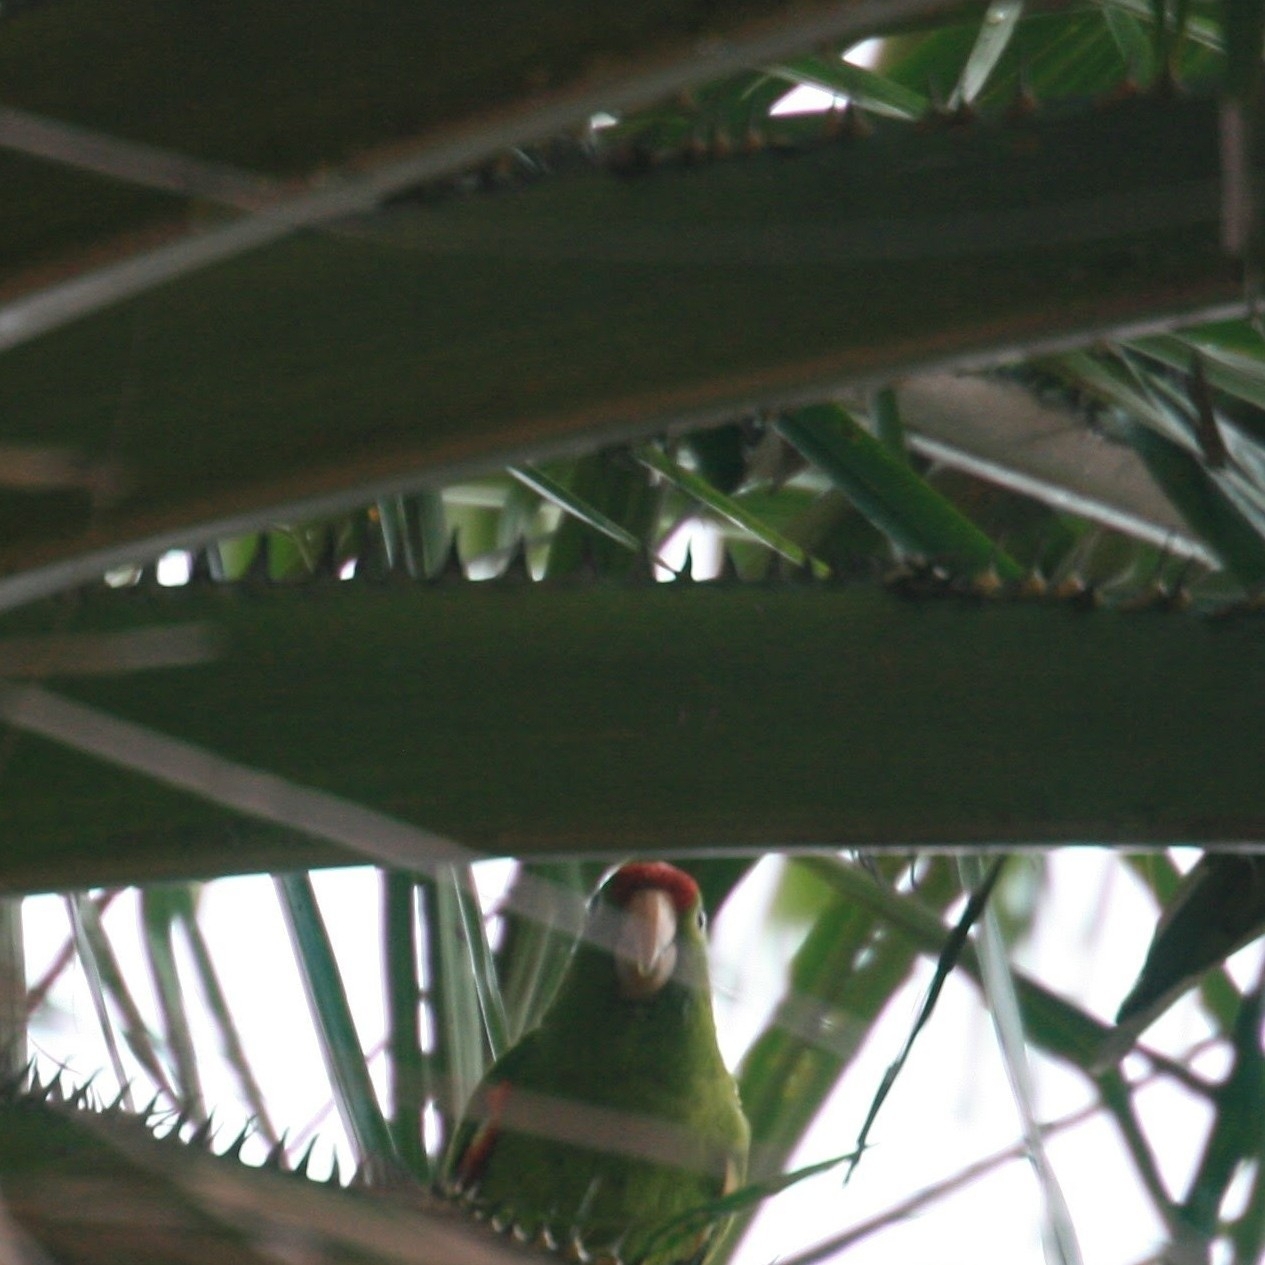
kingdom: Animalia
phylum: Chordata
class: Aves
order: Psittaciformes
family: Psittacidae
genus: Aratinga
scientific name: Aratinga finschi
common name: Crimson-fronted parakeet
